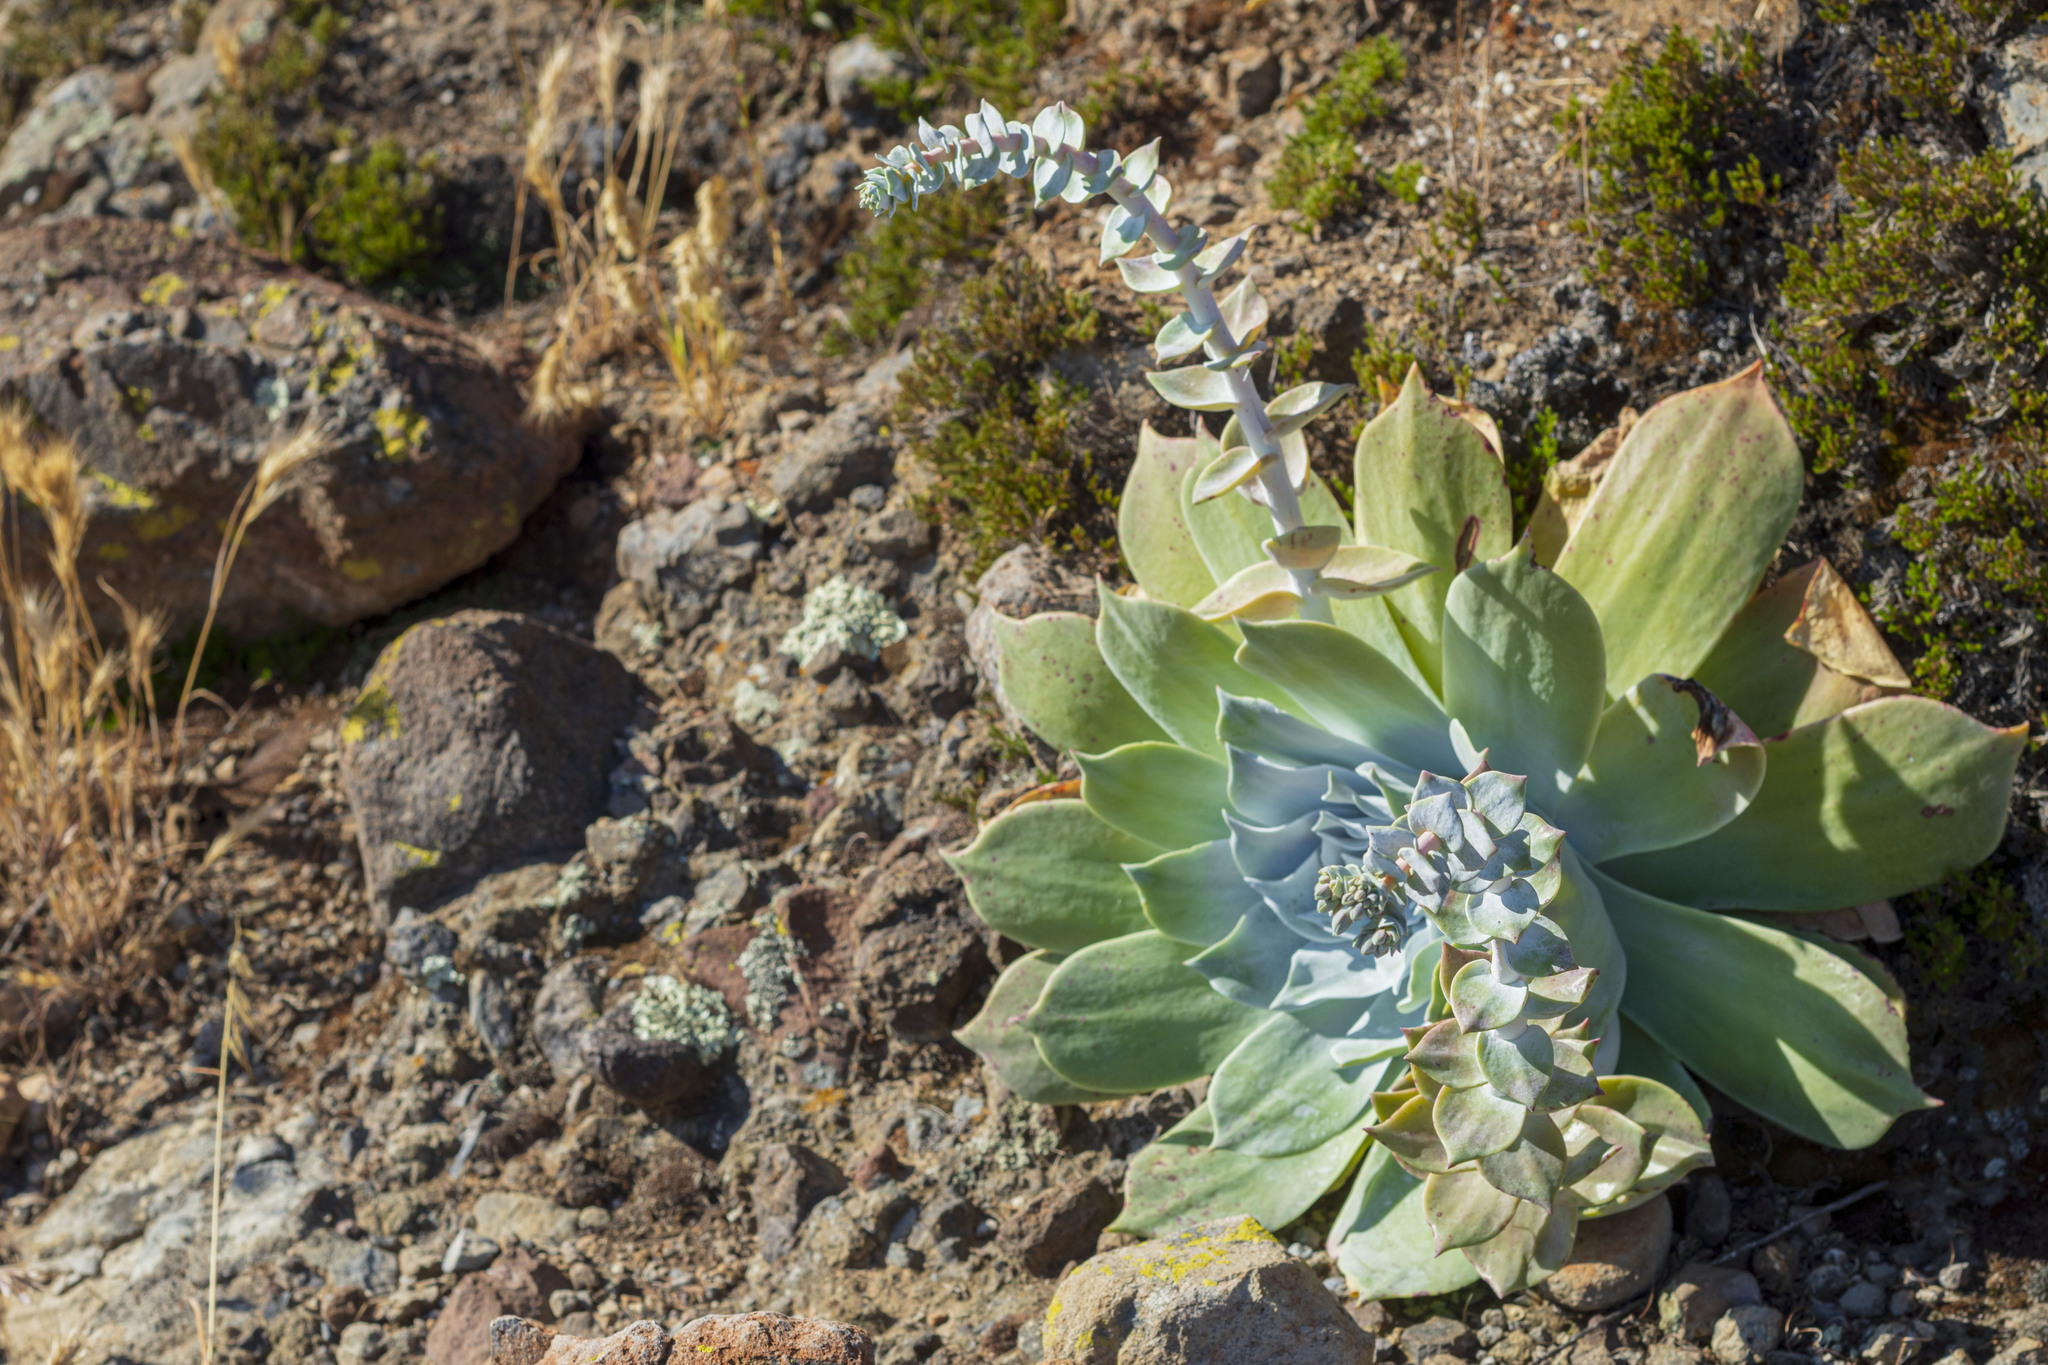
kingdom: Plantae
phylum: Tracheophyta
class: Magnoliopsida
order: Saxifragales
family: Crassulaceae
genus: Dudleya
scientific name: Dudleya pulverulenta
